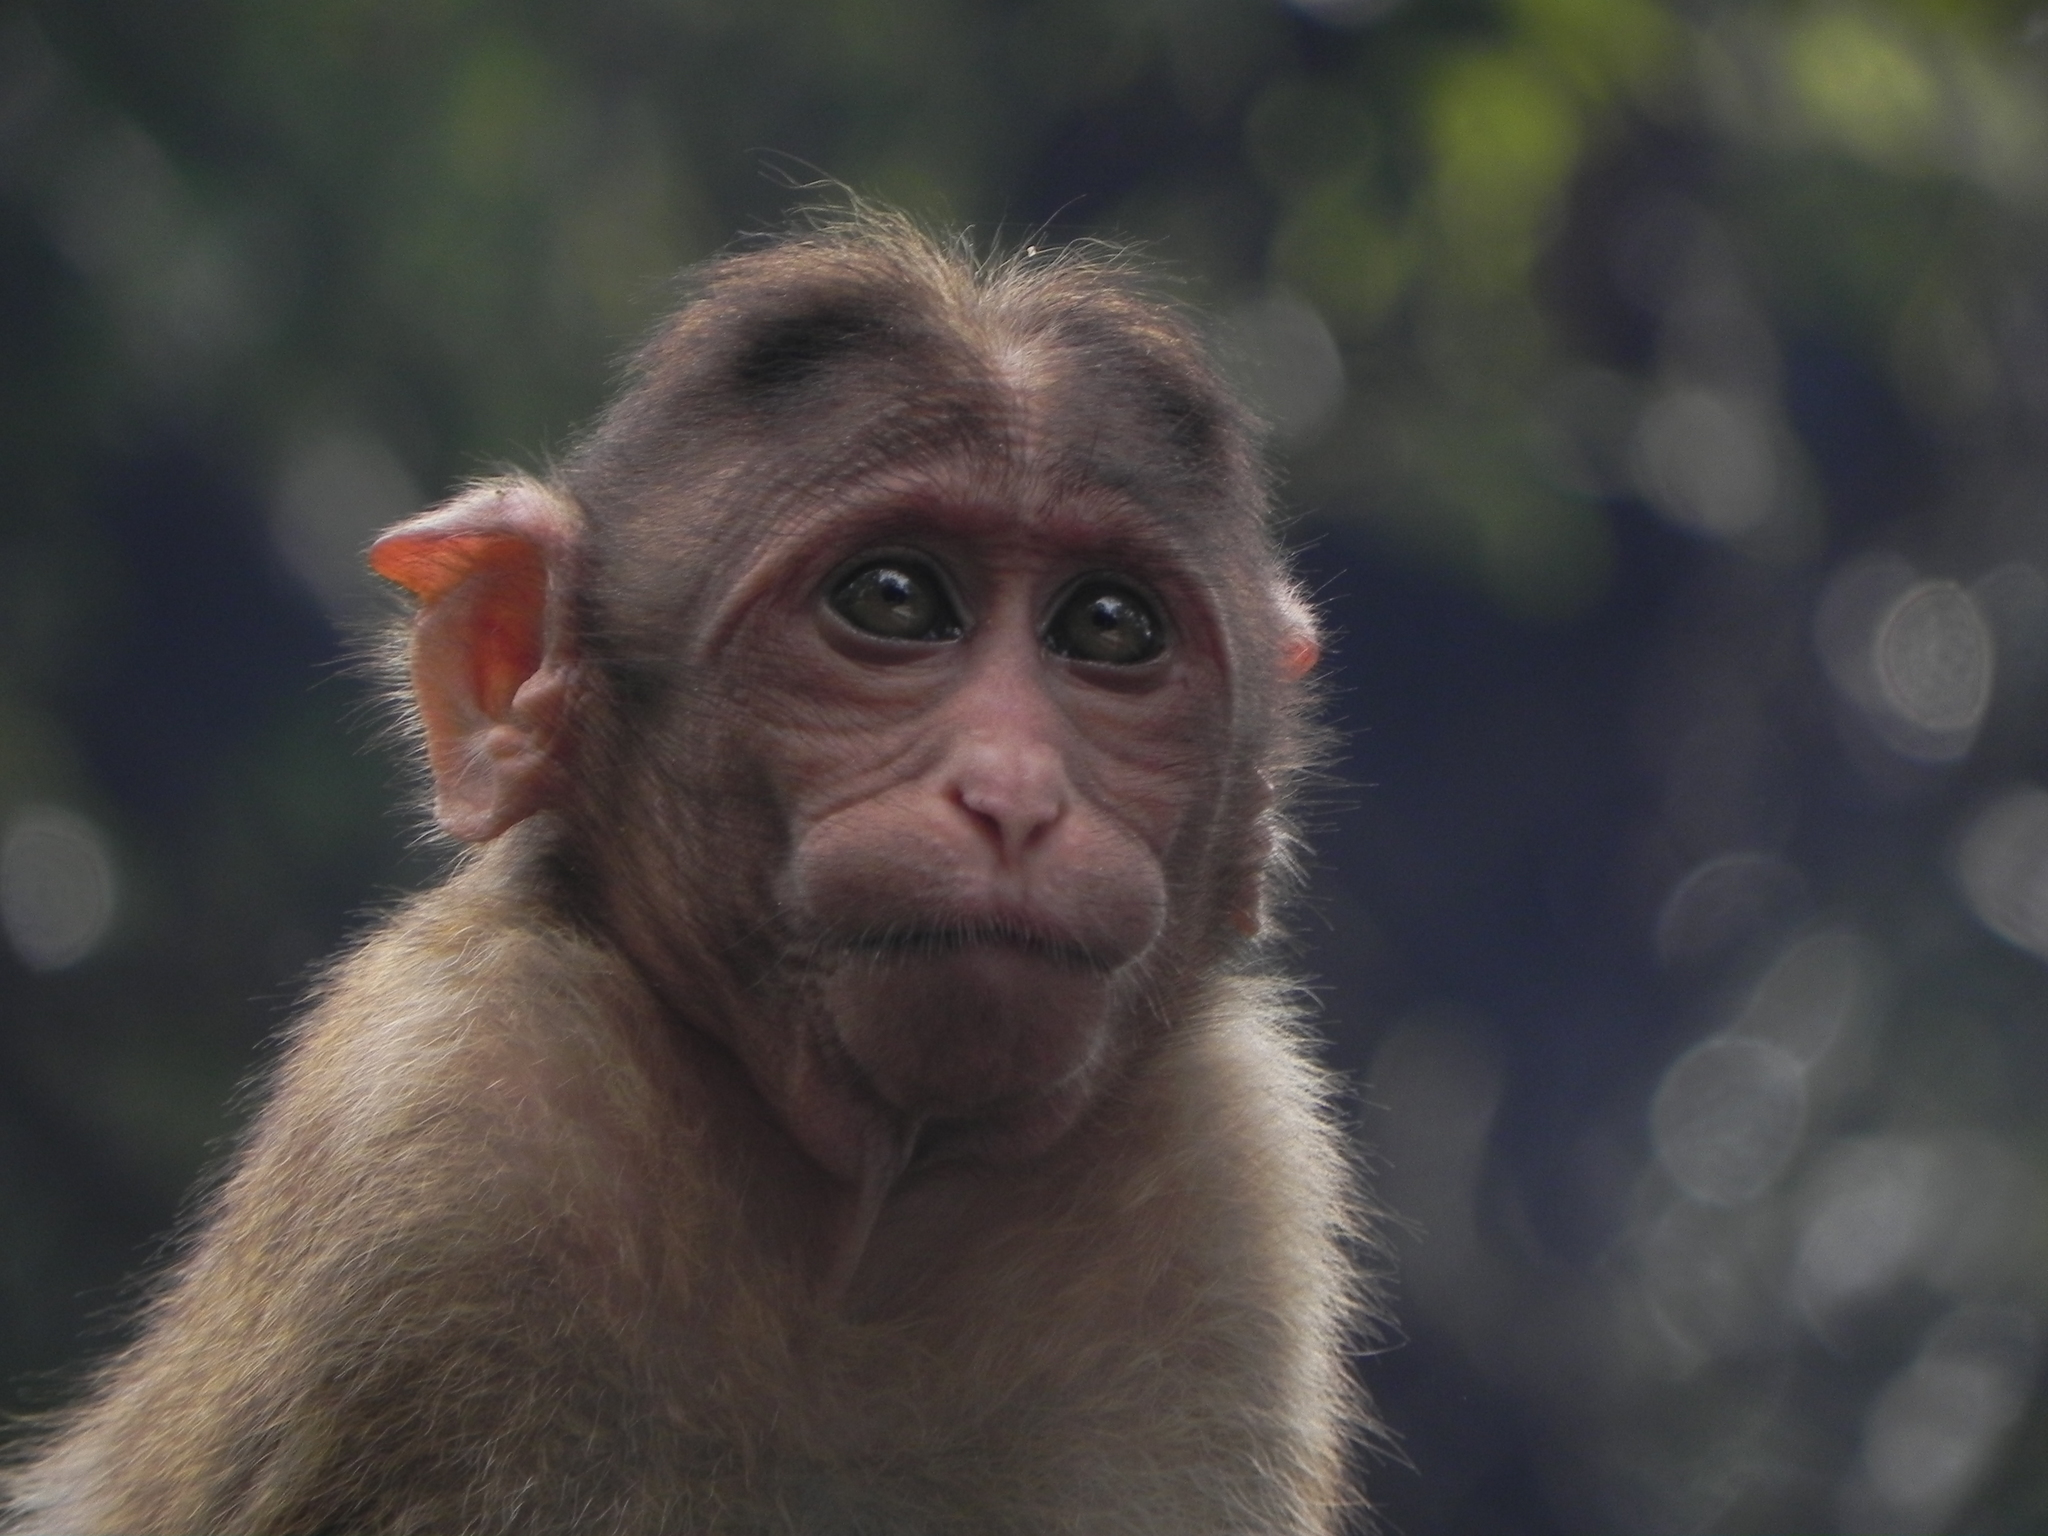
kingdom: Animalia
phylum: Chordata
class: Mammalia
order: Primates
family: Cercopithecidae
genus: Macaca
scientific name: Macaca radiata
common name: Bonnet macaque
